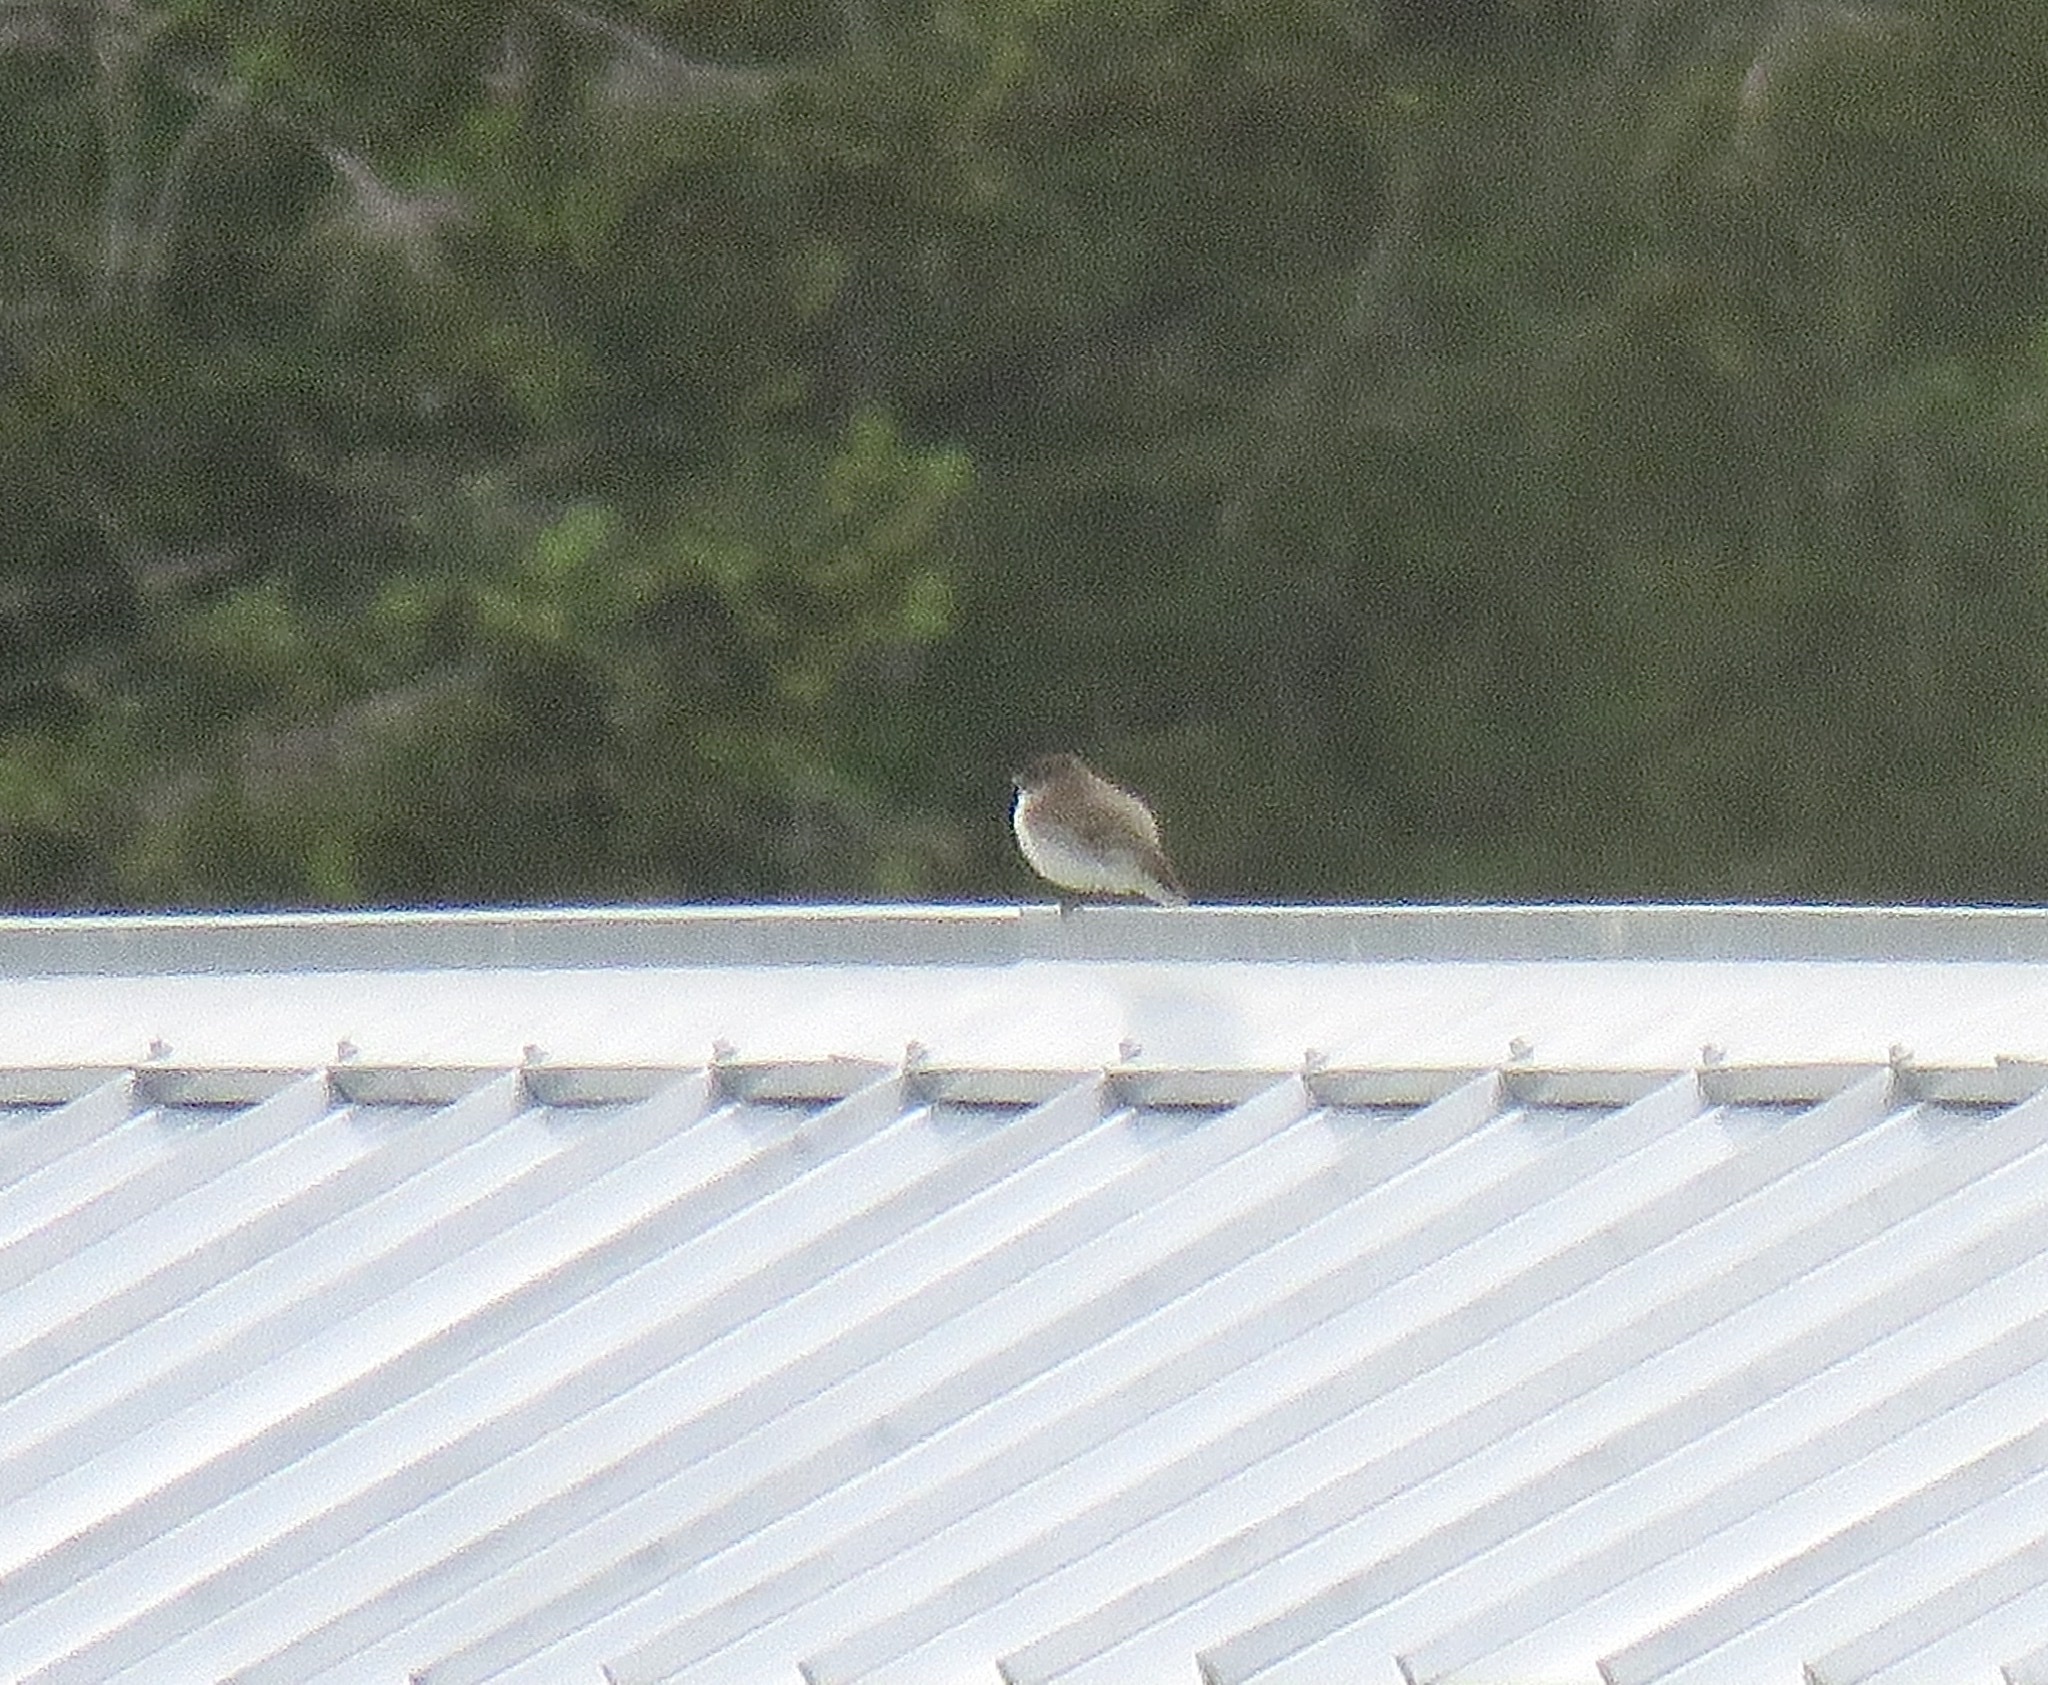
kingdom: Animalia
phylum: Chordata
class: Aves
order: Passeriformes
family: Tyrannidae
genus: Sayornis
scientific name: Sayornis phoebe
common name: Eastern phoebe
